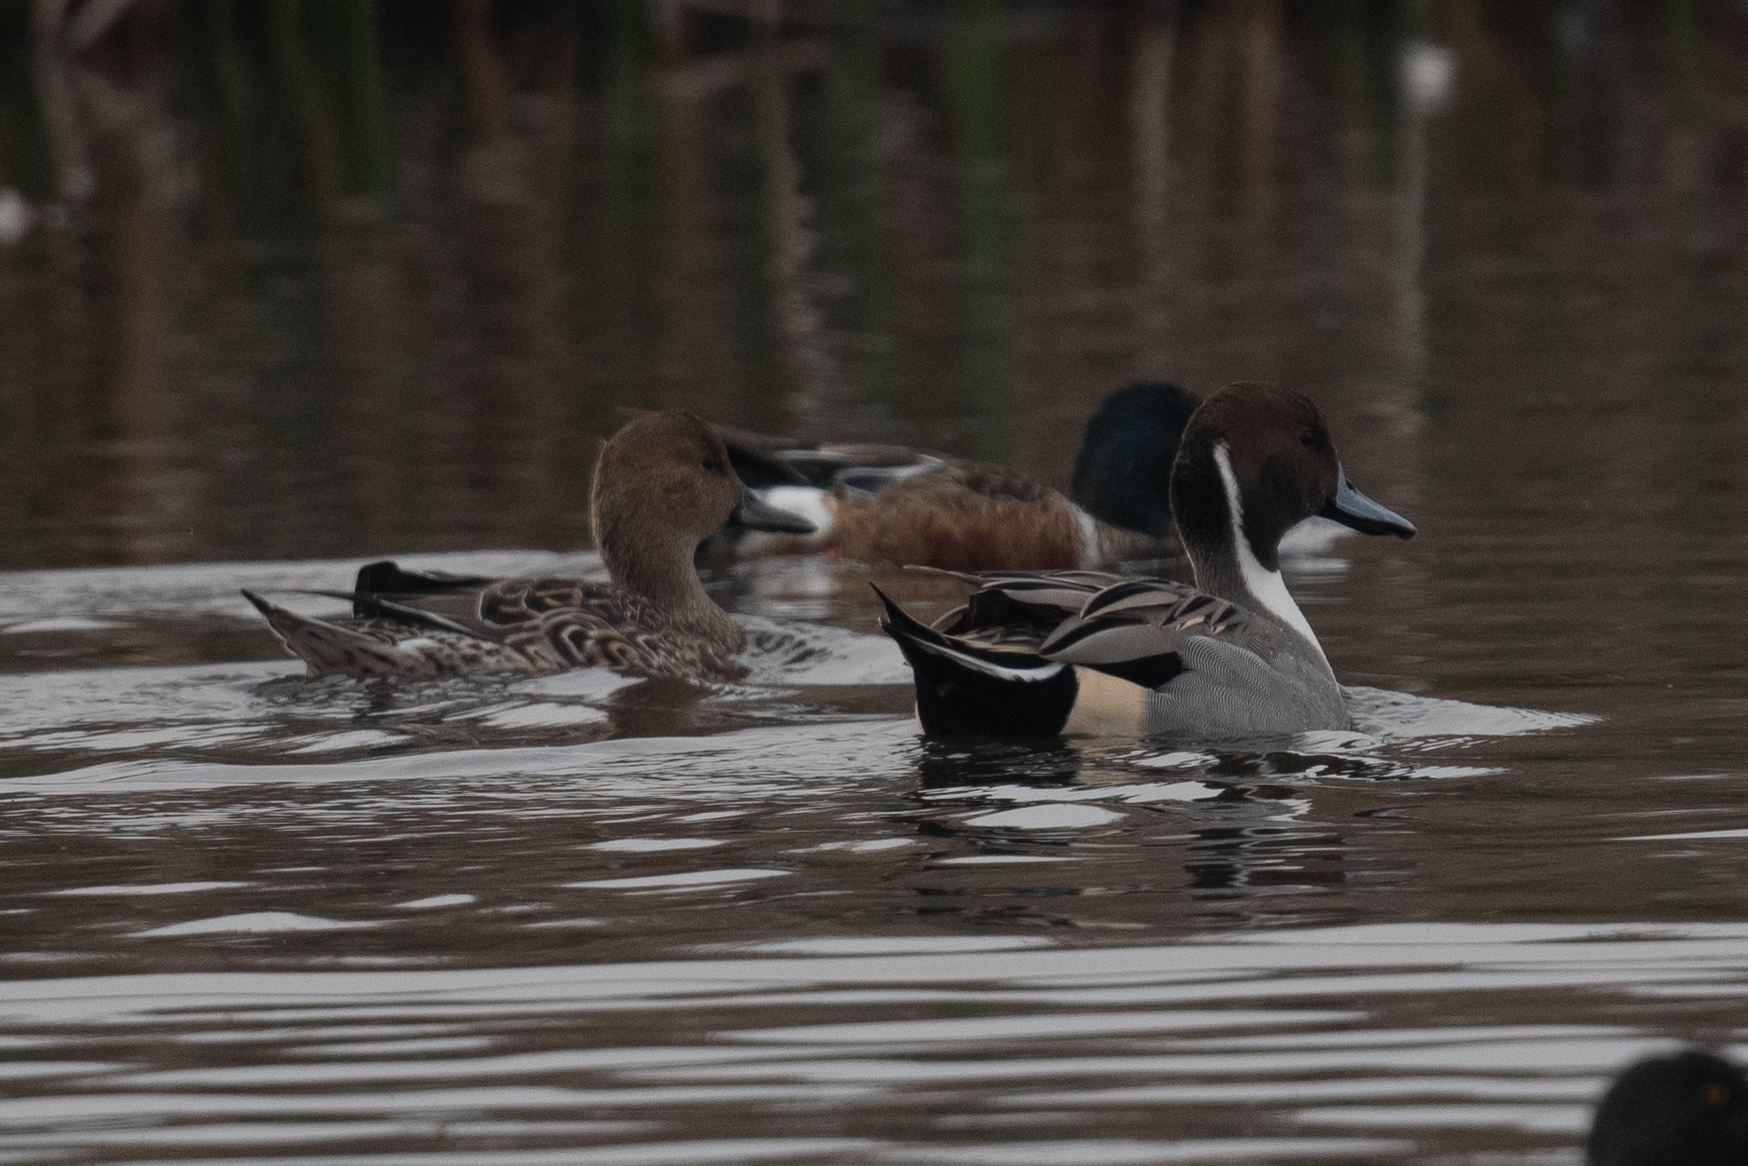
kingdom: Animalia
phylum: Chordata
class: Aves
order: Anseriformes
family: Anatidae
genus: Anas
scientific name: Anas acuta
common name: Northern pintail
